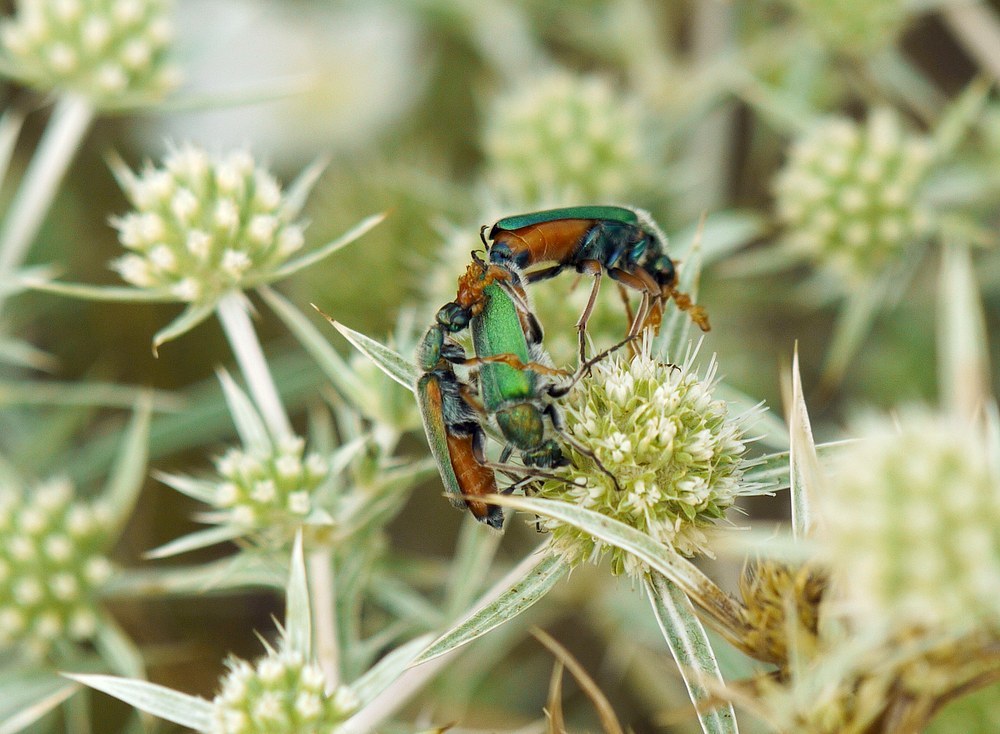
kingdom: Animalia
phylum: Arthropoda
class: Insecta
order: Coleoptera
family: Meloidae
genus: Cerocoma
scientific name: Cerocoma schreberi
